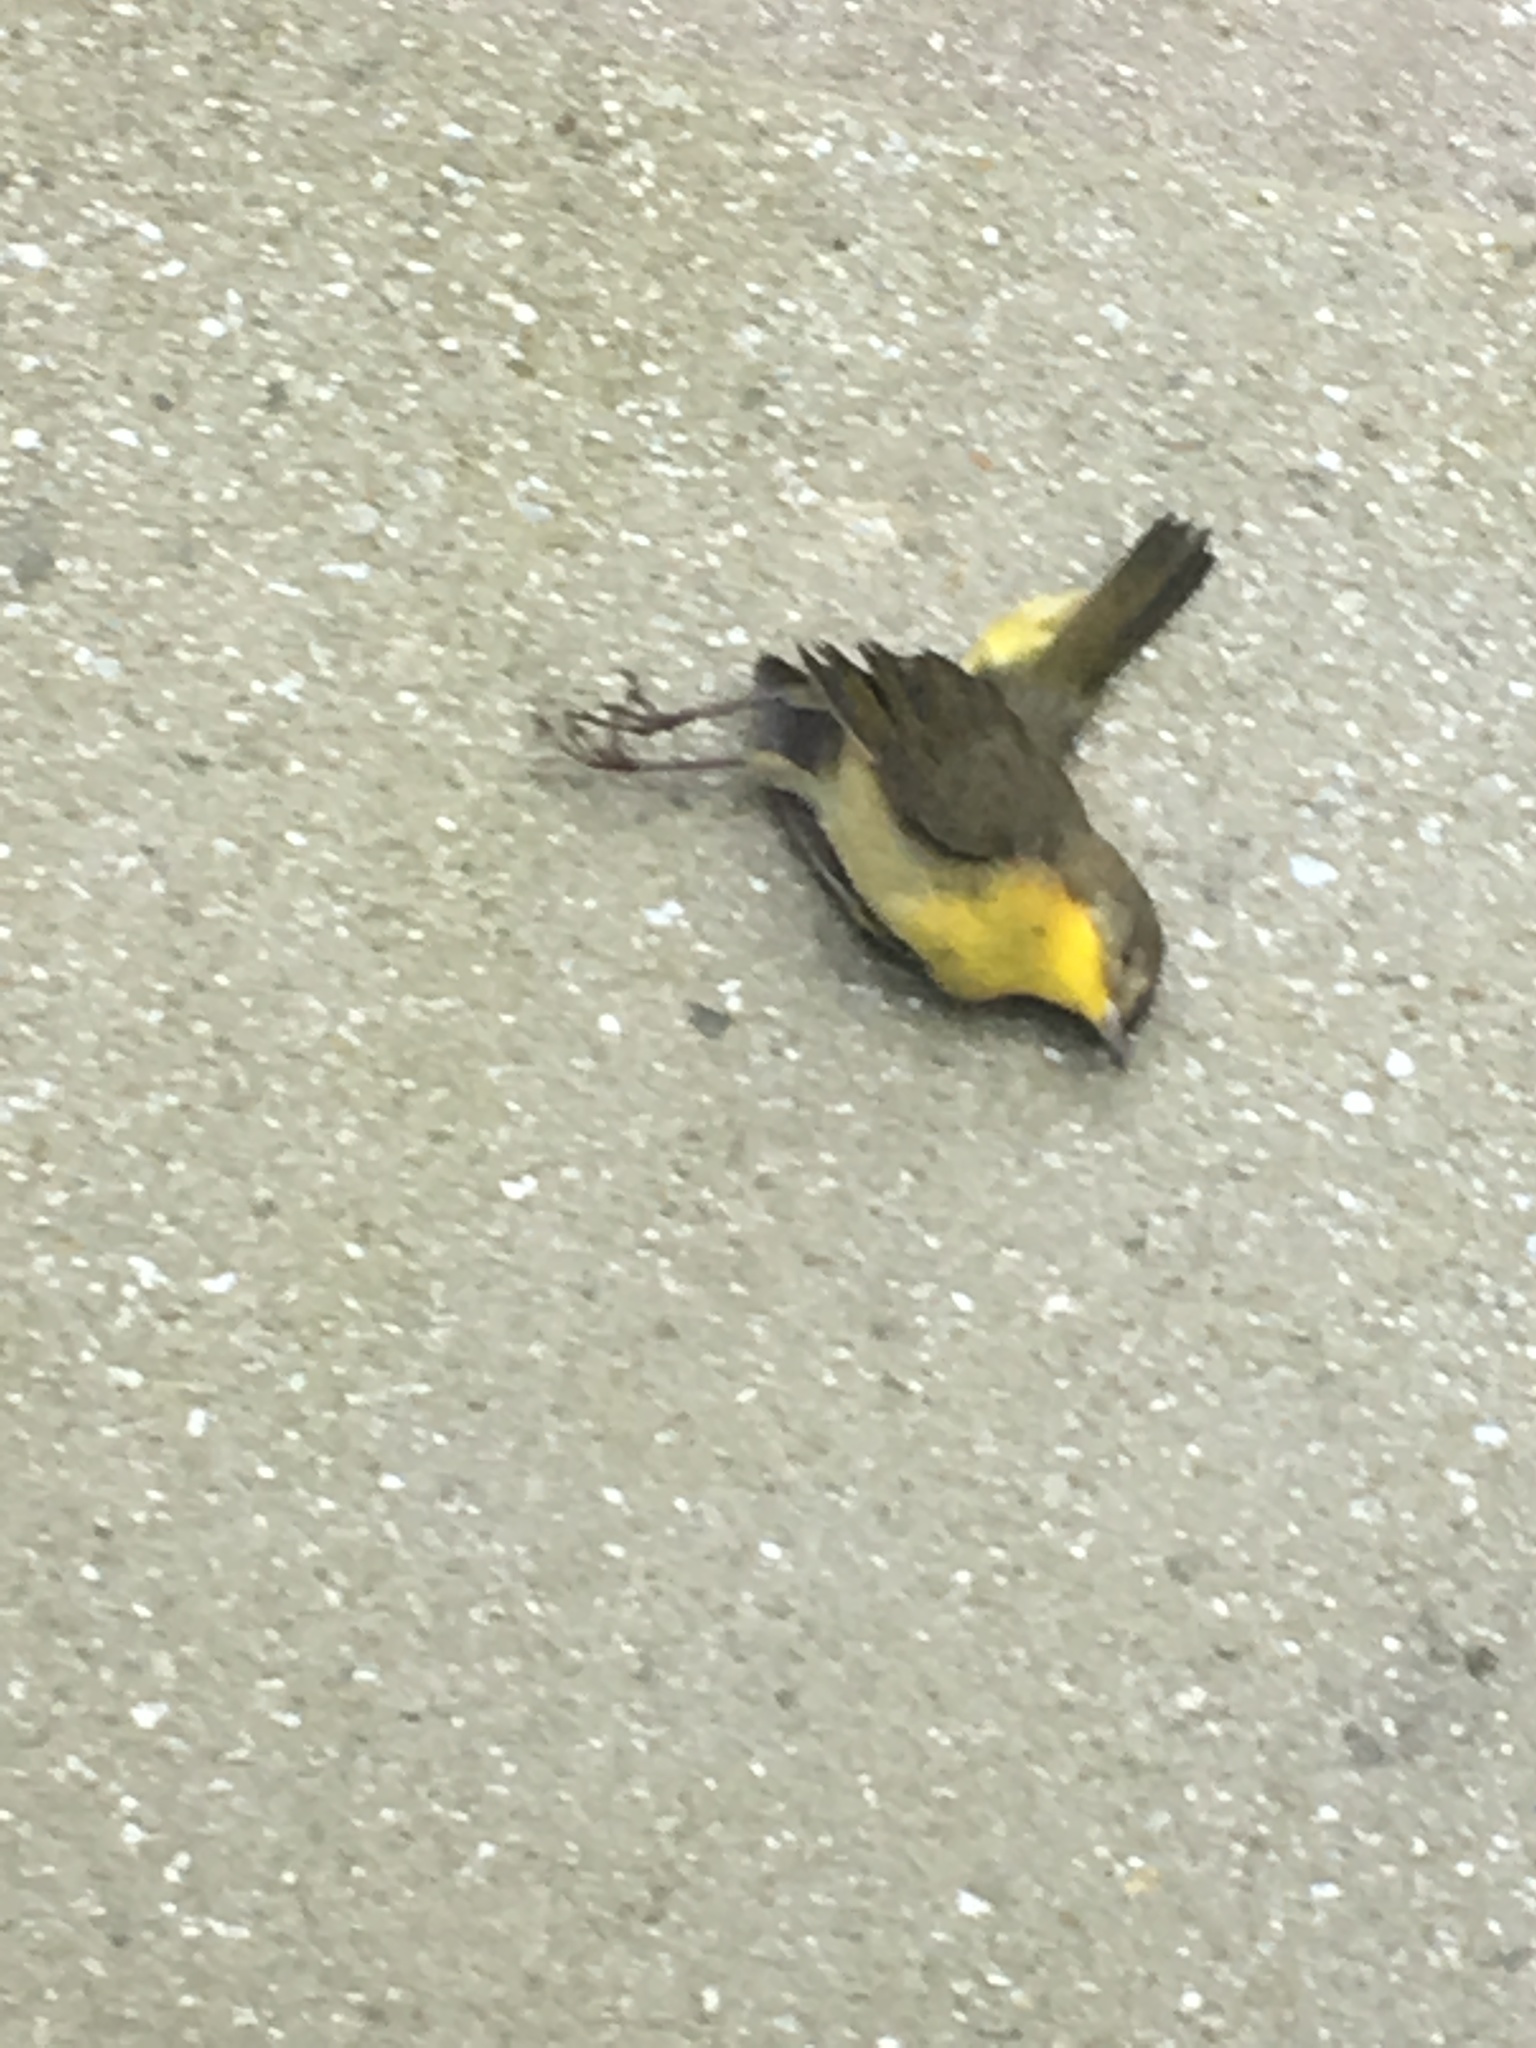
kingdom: Animalia
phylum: Chordata
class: Aves
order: Passeriformes
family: Parulidae
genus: Geothlypis
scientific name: Geothlypis trichas
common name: Common yellowthroat
